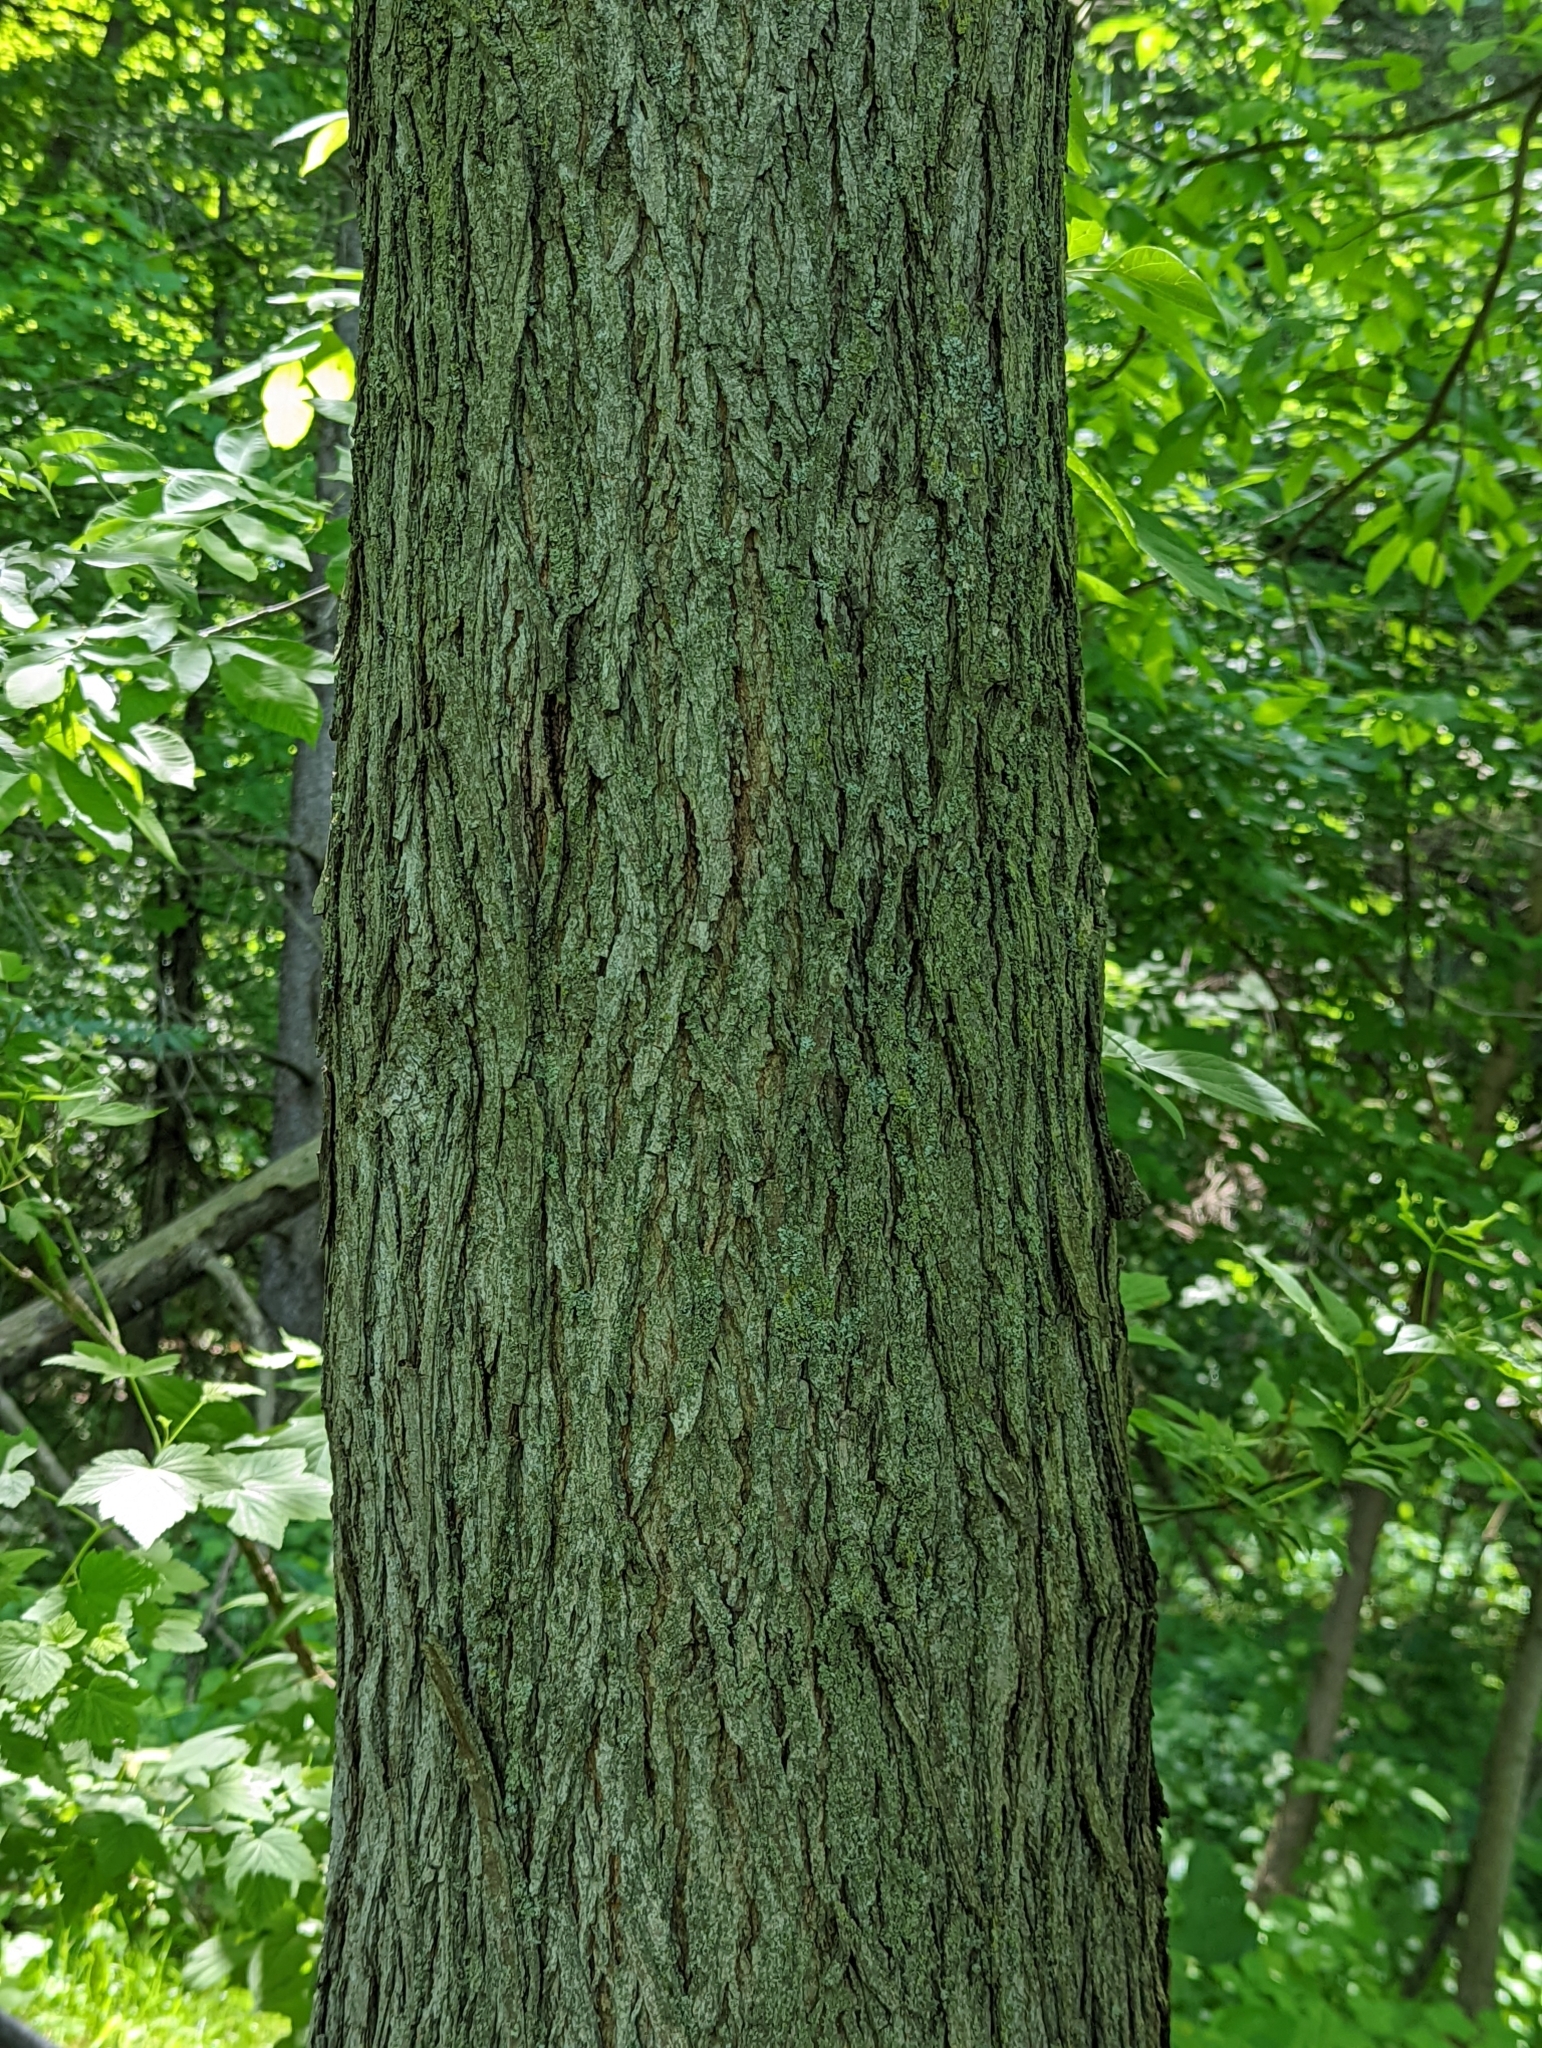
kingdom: Plantae
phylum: Tracheophyta
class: Magnoliopsida
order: Fagales
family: Juglandaceae
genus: Carya
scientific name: Carya cordiformis
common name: Bitternut hickory
